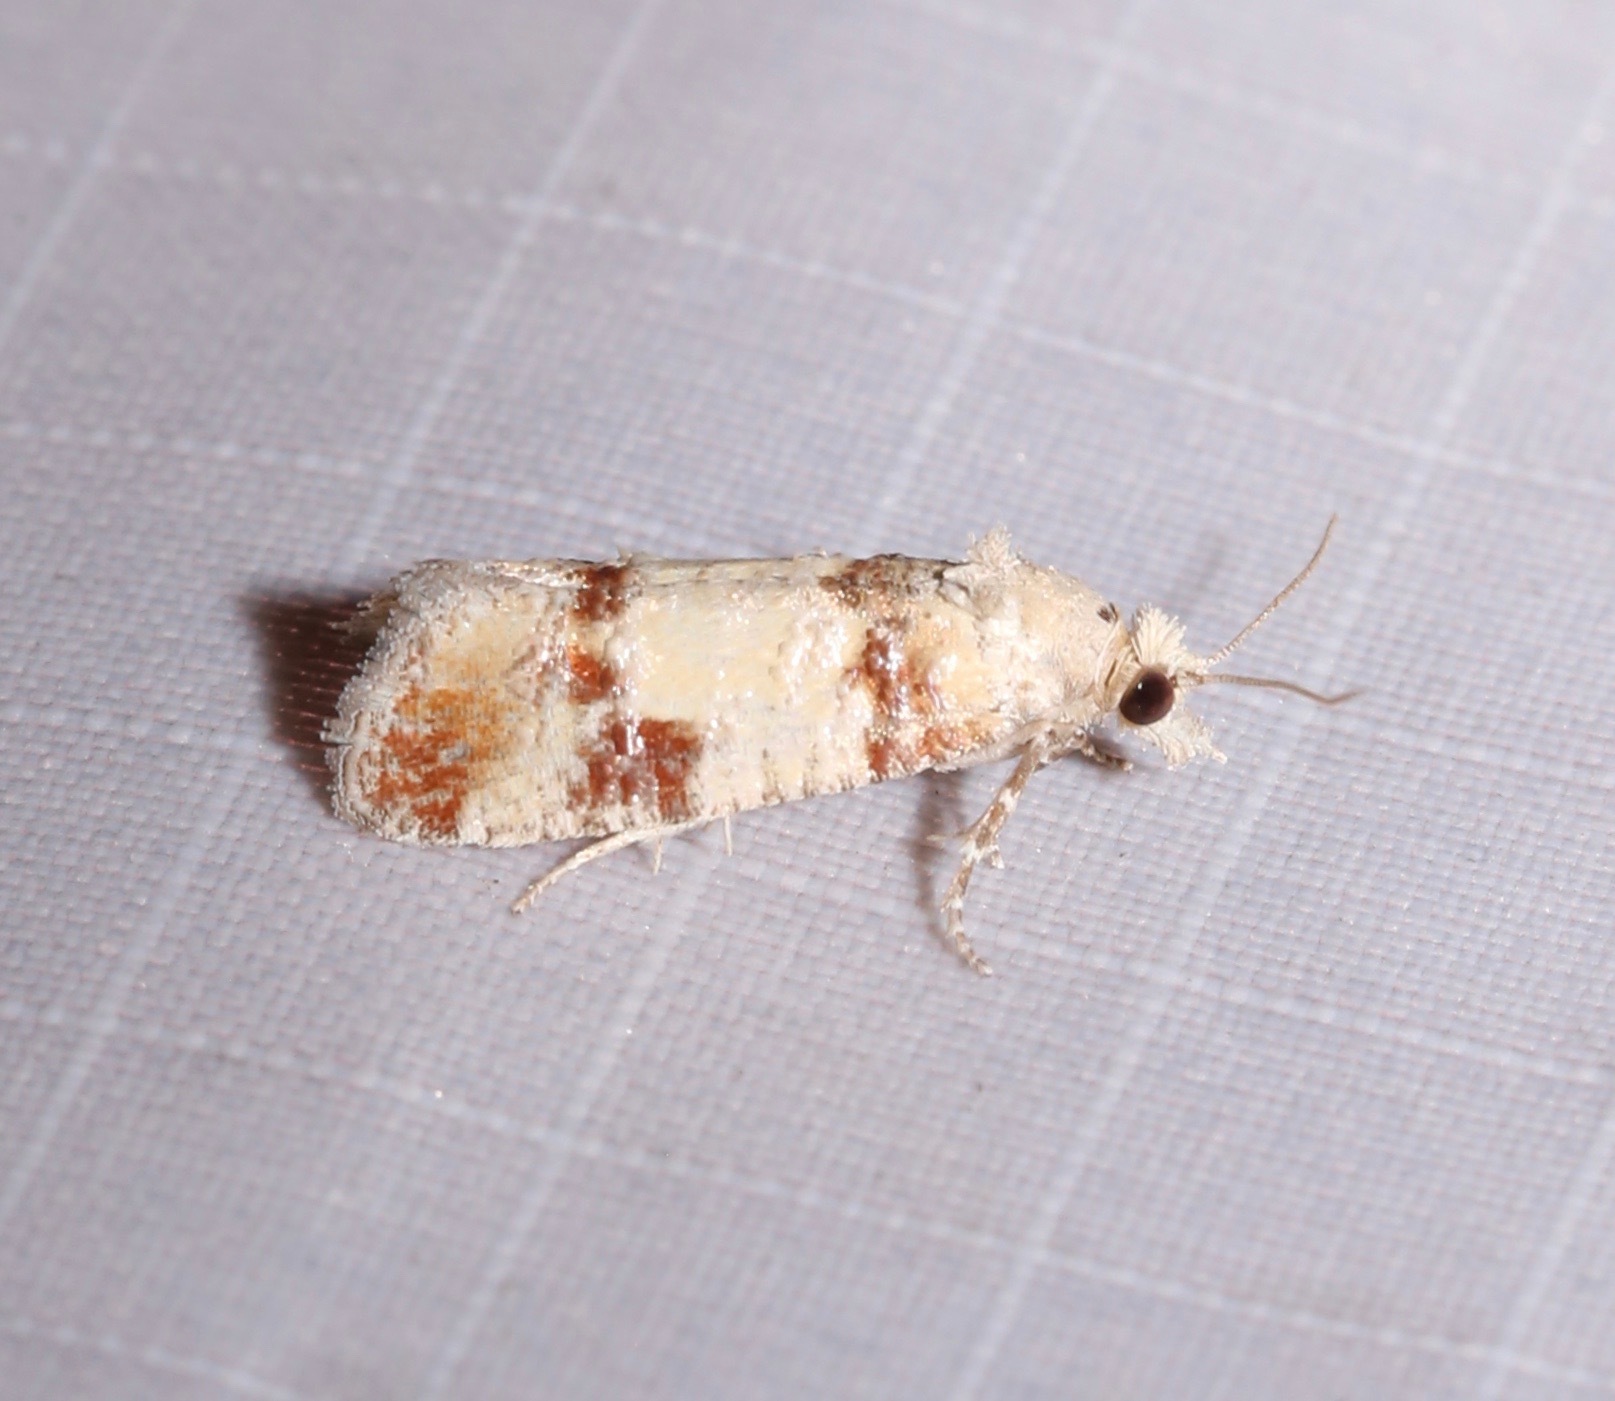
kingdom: Animalia
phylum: Arthropoda
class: Insecta
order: Lepidoptera
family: Tortricidae
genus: Rhyacionia
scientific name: Rhyacionia subtropica
